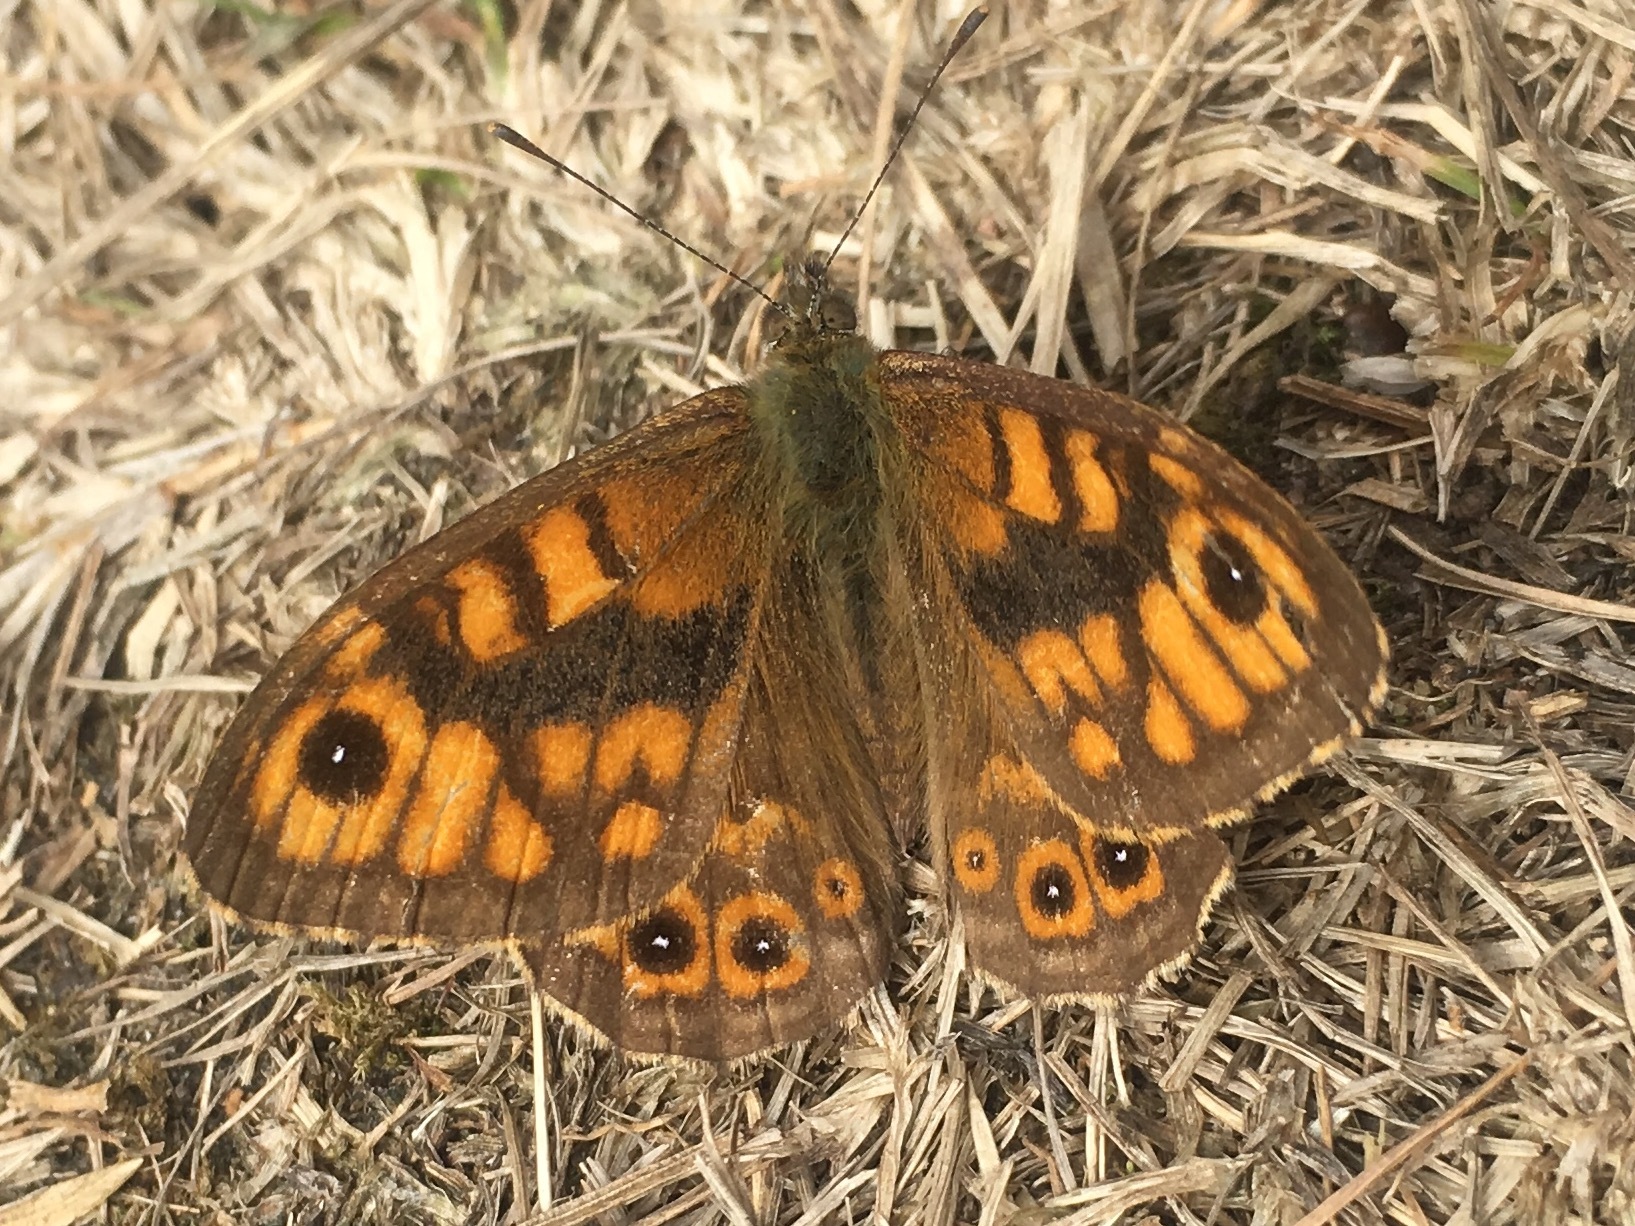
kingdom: Animalia
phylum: Arthropoda
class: Insecta
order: Lepidoptera
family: Nymphalidae
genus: Pararge
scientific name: Pararge Lasiommata megera
